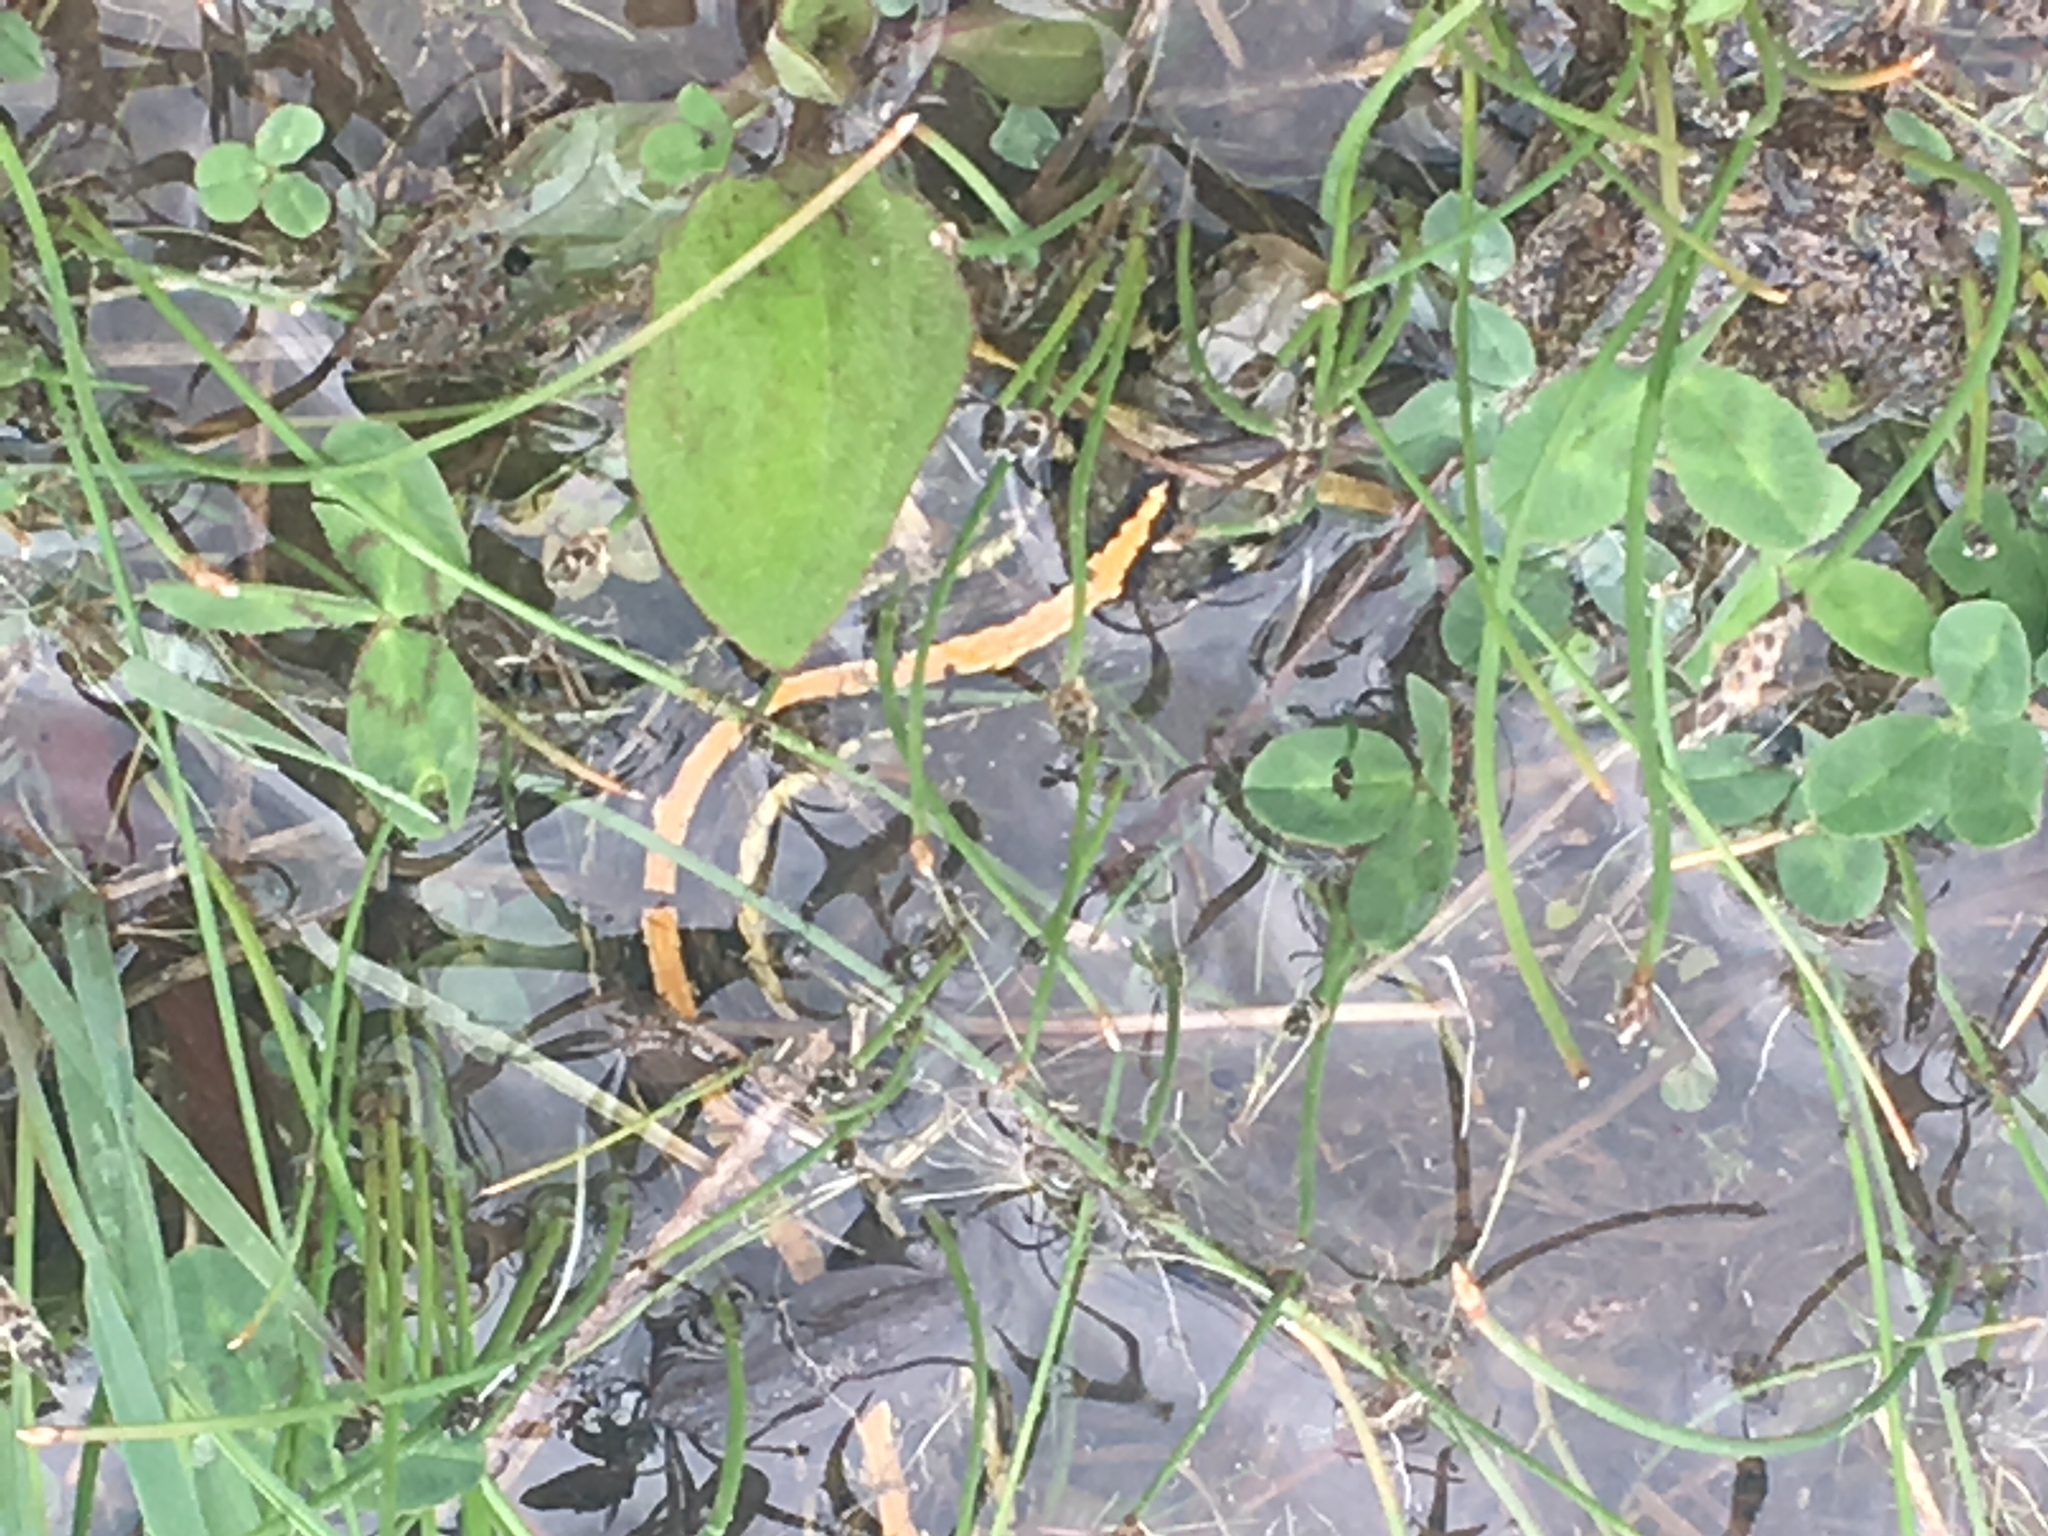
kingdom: Animalia
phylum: Chordata
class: Squamata
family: Colubridae
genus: Thamnophis
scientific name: Thamnophis radix
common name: Plains garter snake
